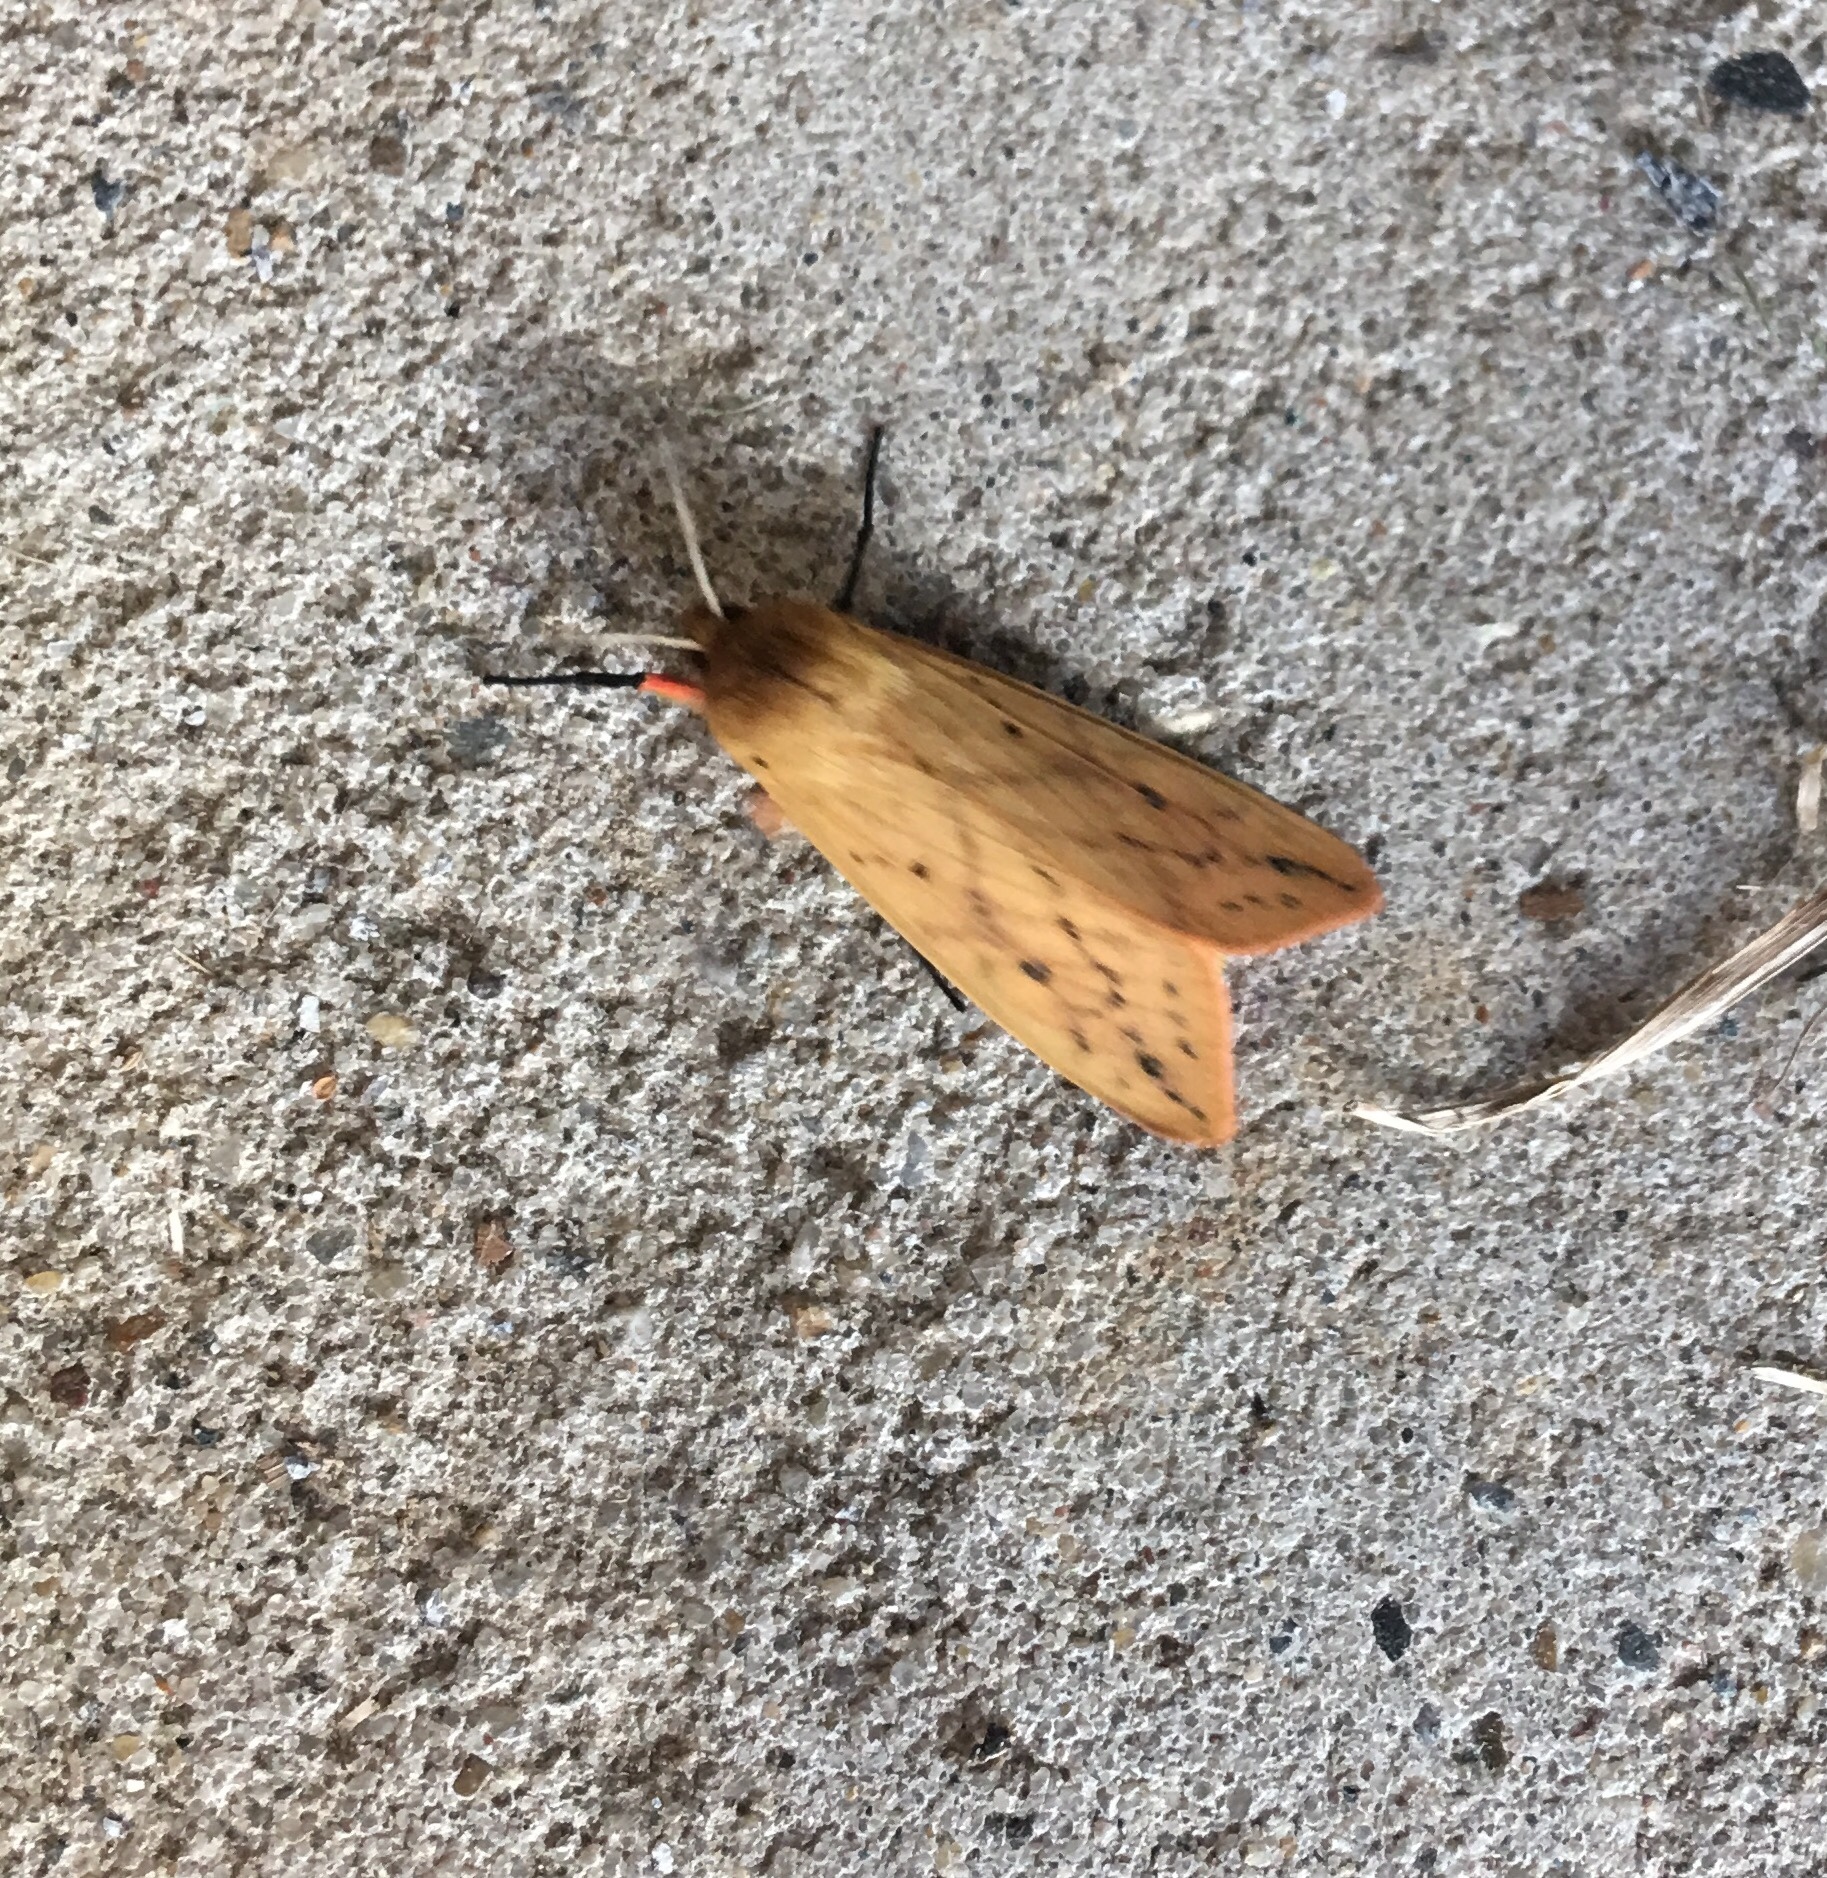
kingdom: Animalia
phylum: Arthropoda
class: Insecta
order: Lepidoptera
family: Erebidae
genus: Pyrrharctia
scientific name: Pyrrharctia isabella
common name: Isabella tiger moth
